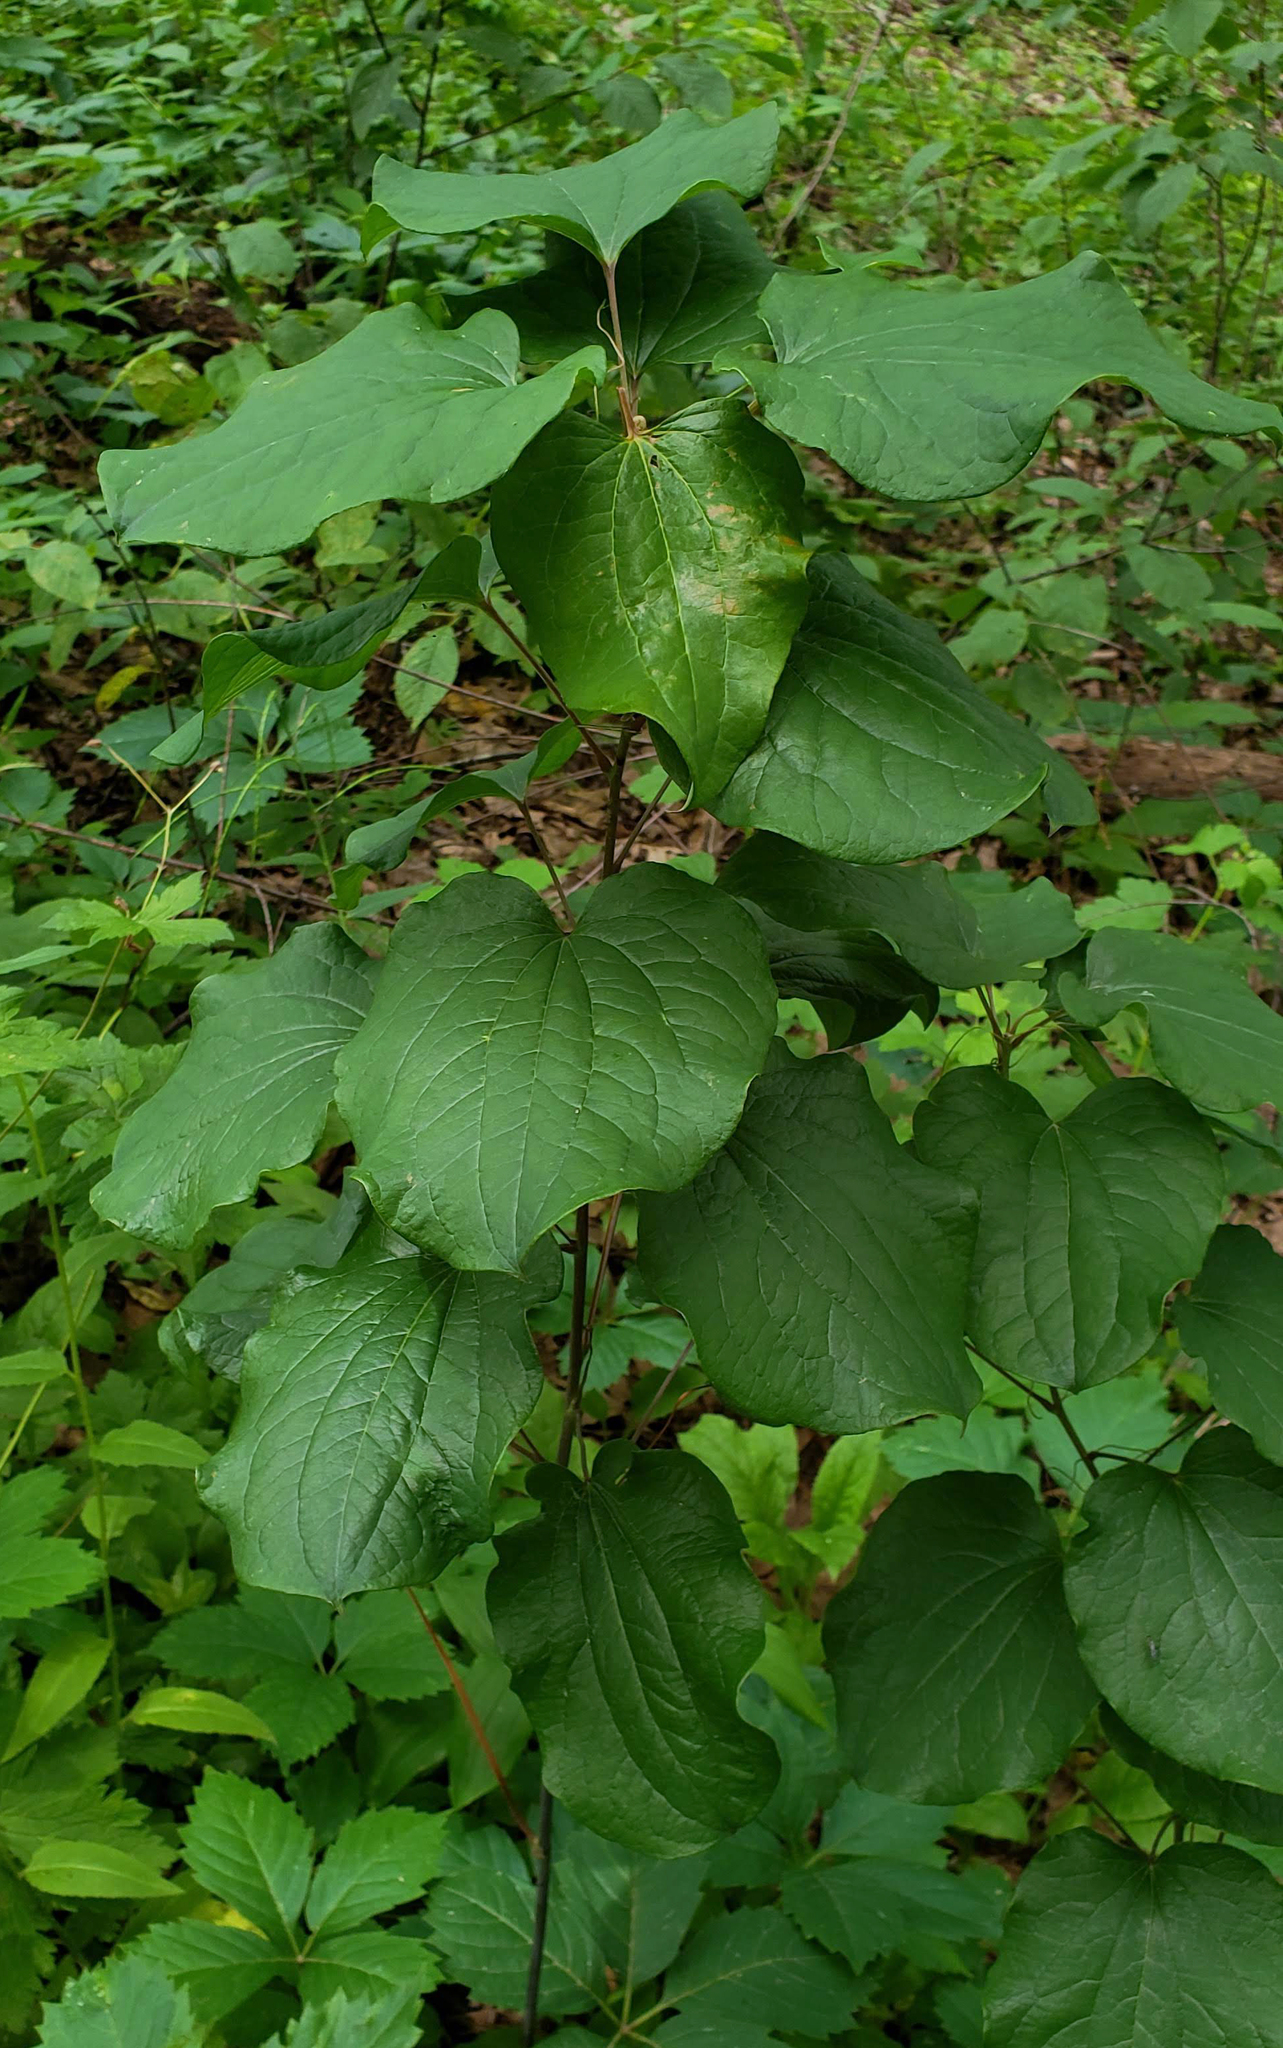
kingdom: Plantae
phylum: Tracheophyta
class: Liliopsida
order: Liliales
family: Smilacaceae
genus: Smilax
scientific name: Smilax illinoensis
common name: Illinois carrionflower
